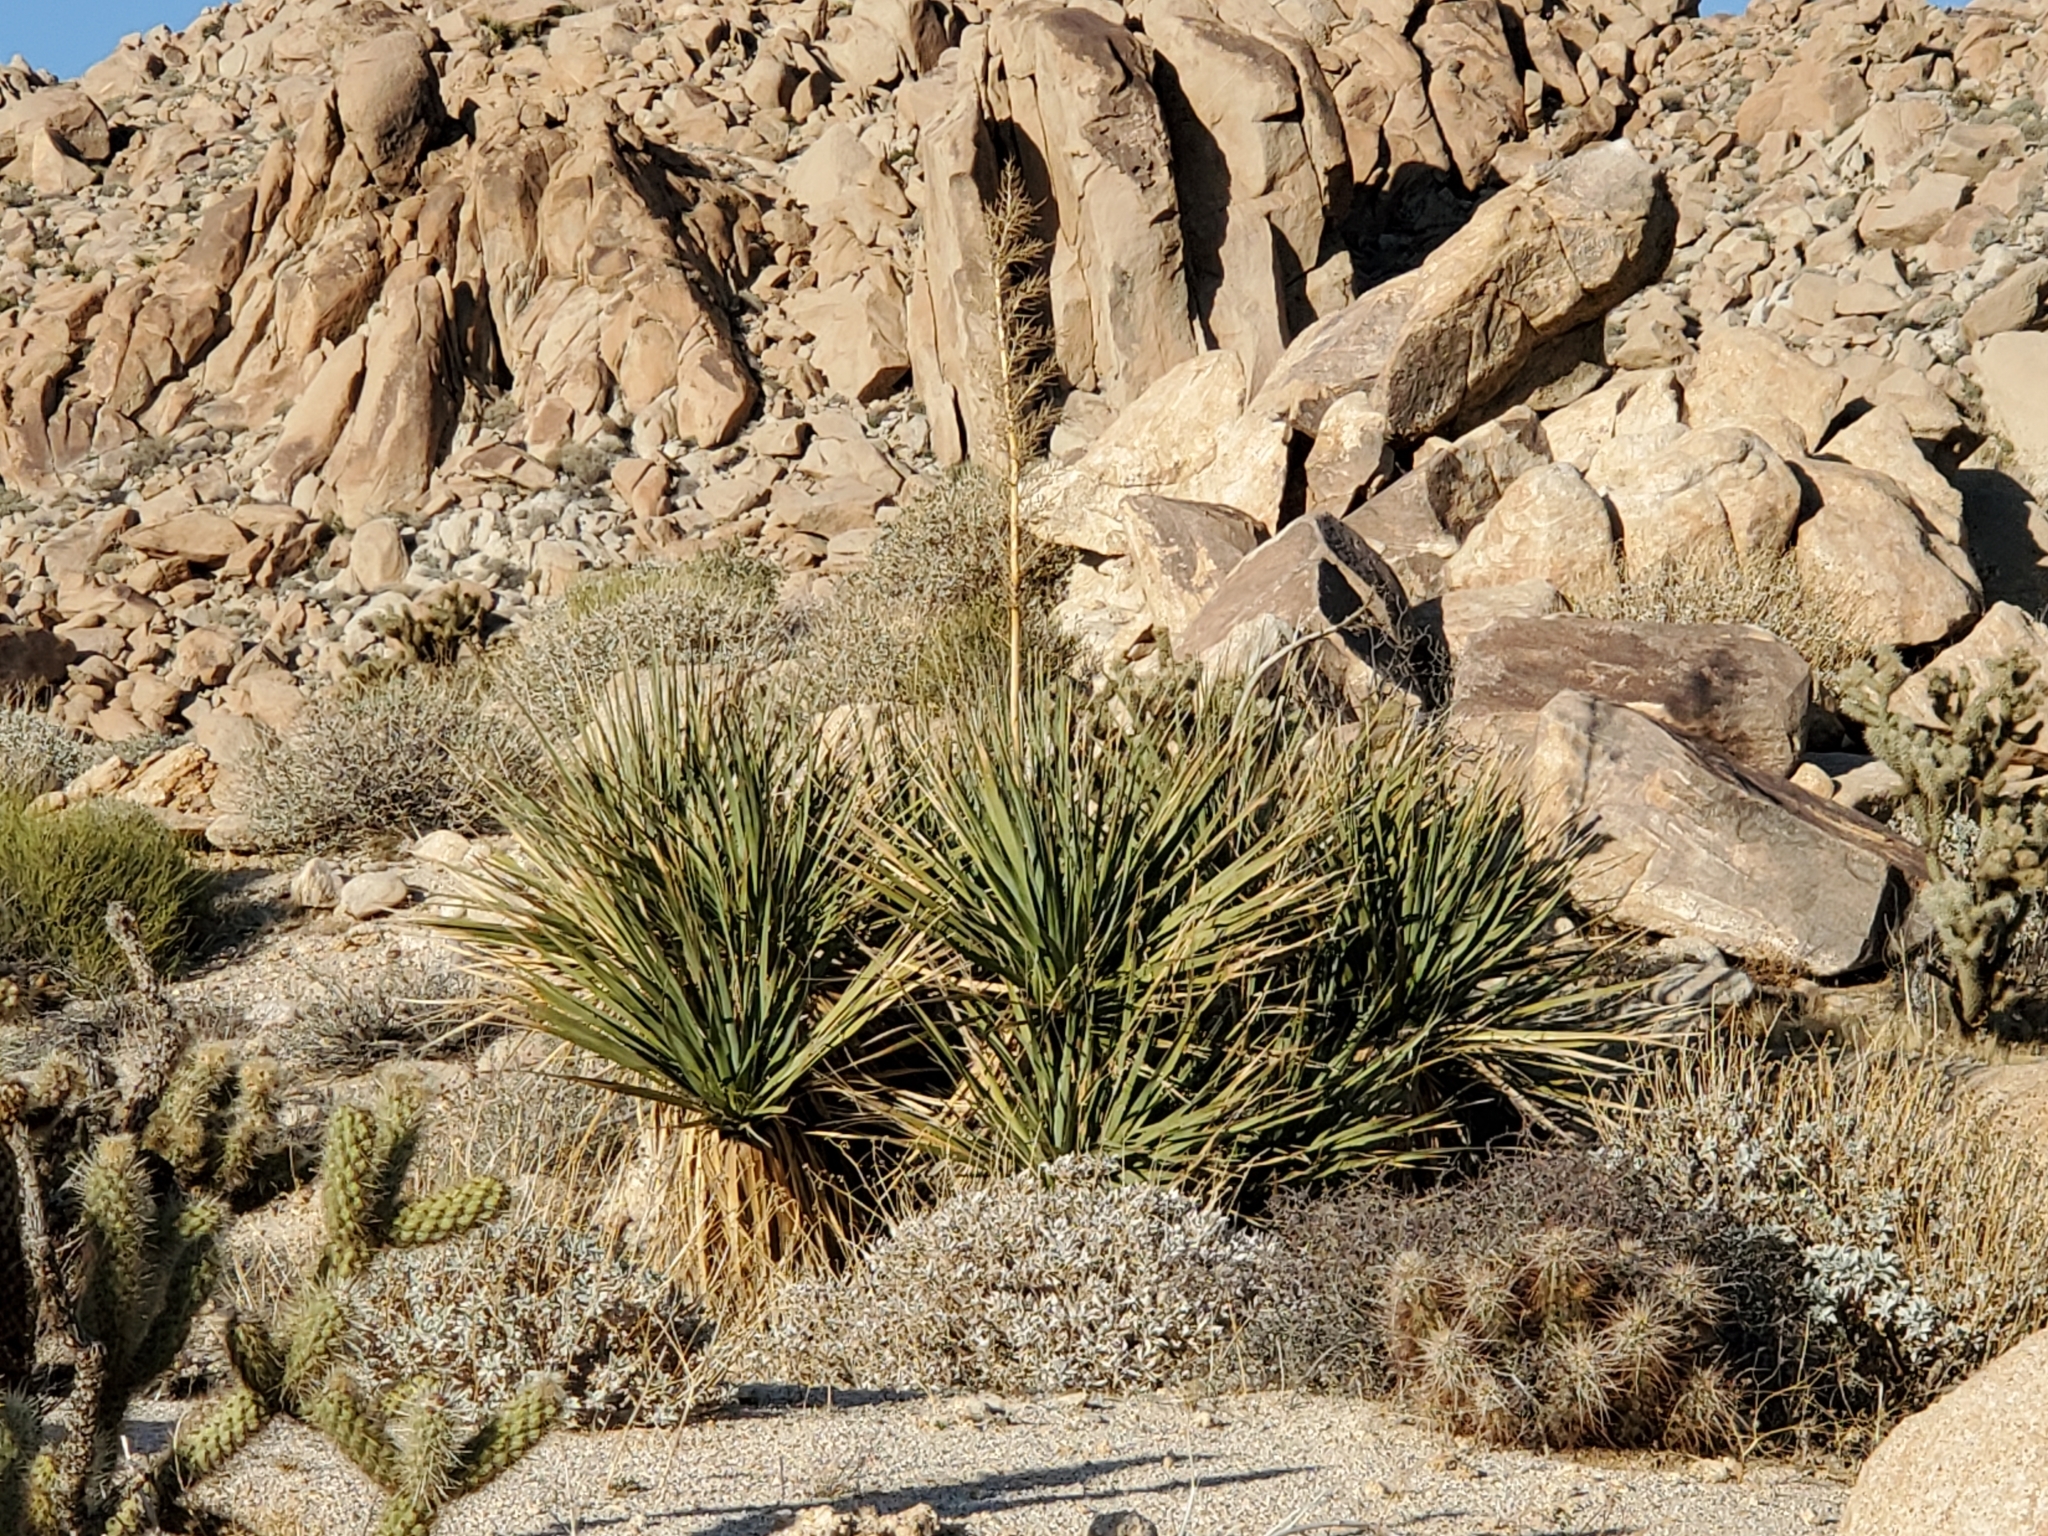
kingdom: Plantae
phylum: Tracheophyta
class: Liliopsida
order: Asparagales
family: Asparagaceae
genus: Nolina
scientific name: Nolina bigelovii
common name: Bigelow bear-grass
